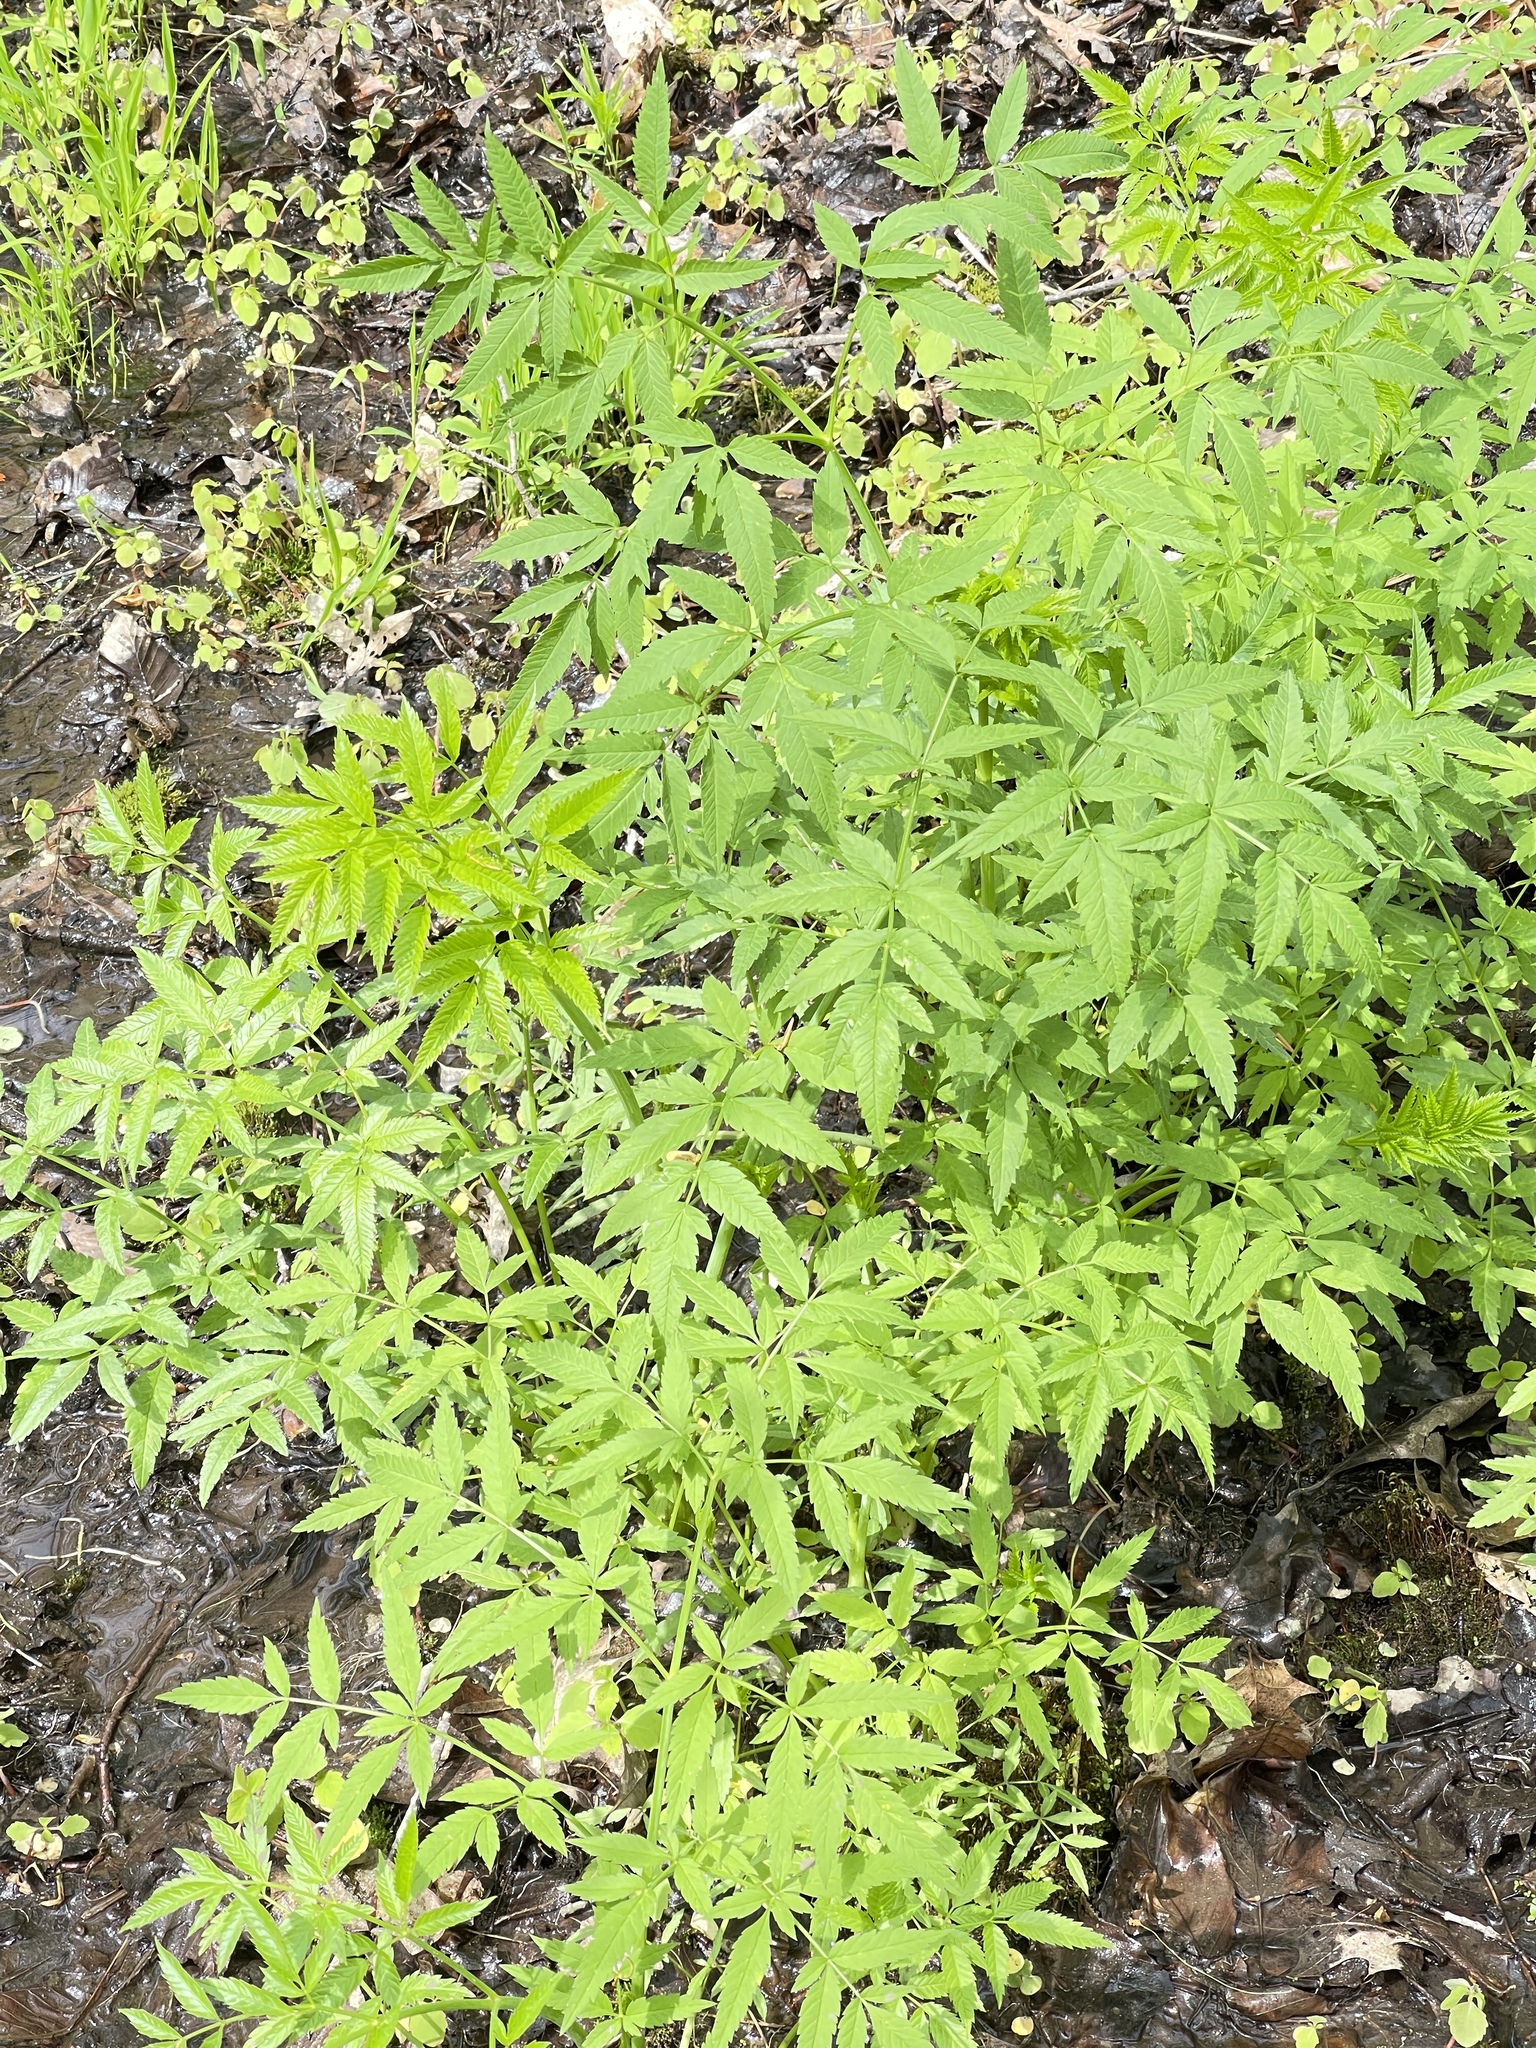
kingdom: Plantae
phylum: Tracheophyta
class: Magnoliopsida
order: Apiales
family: Apiaceae
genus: Cicuta
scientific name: Cicuta maculata
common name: Spotted cowbane
